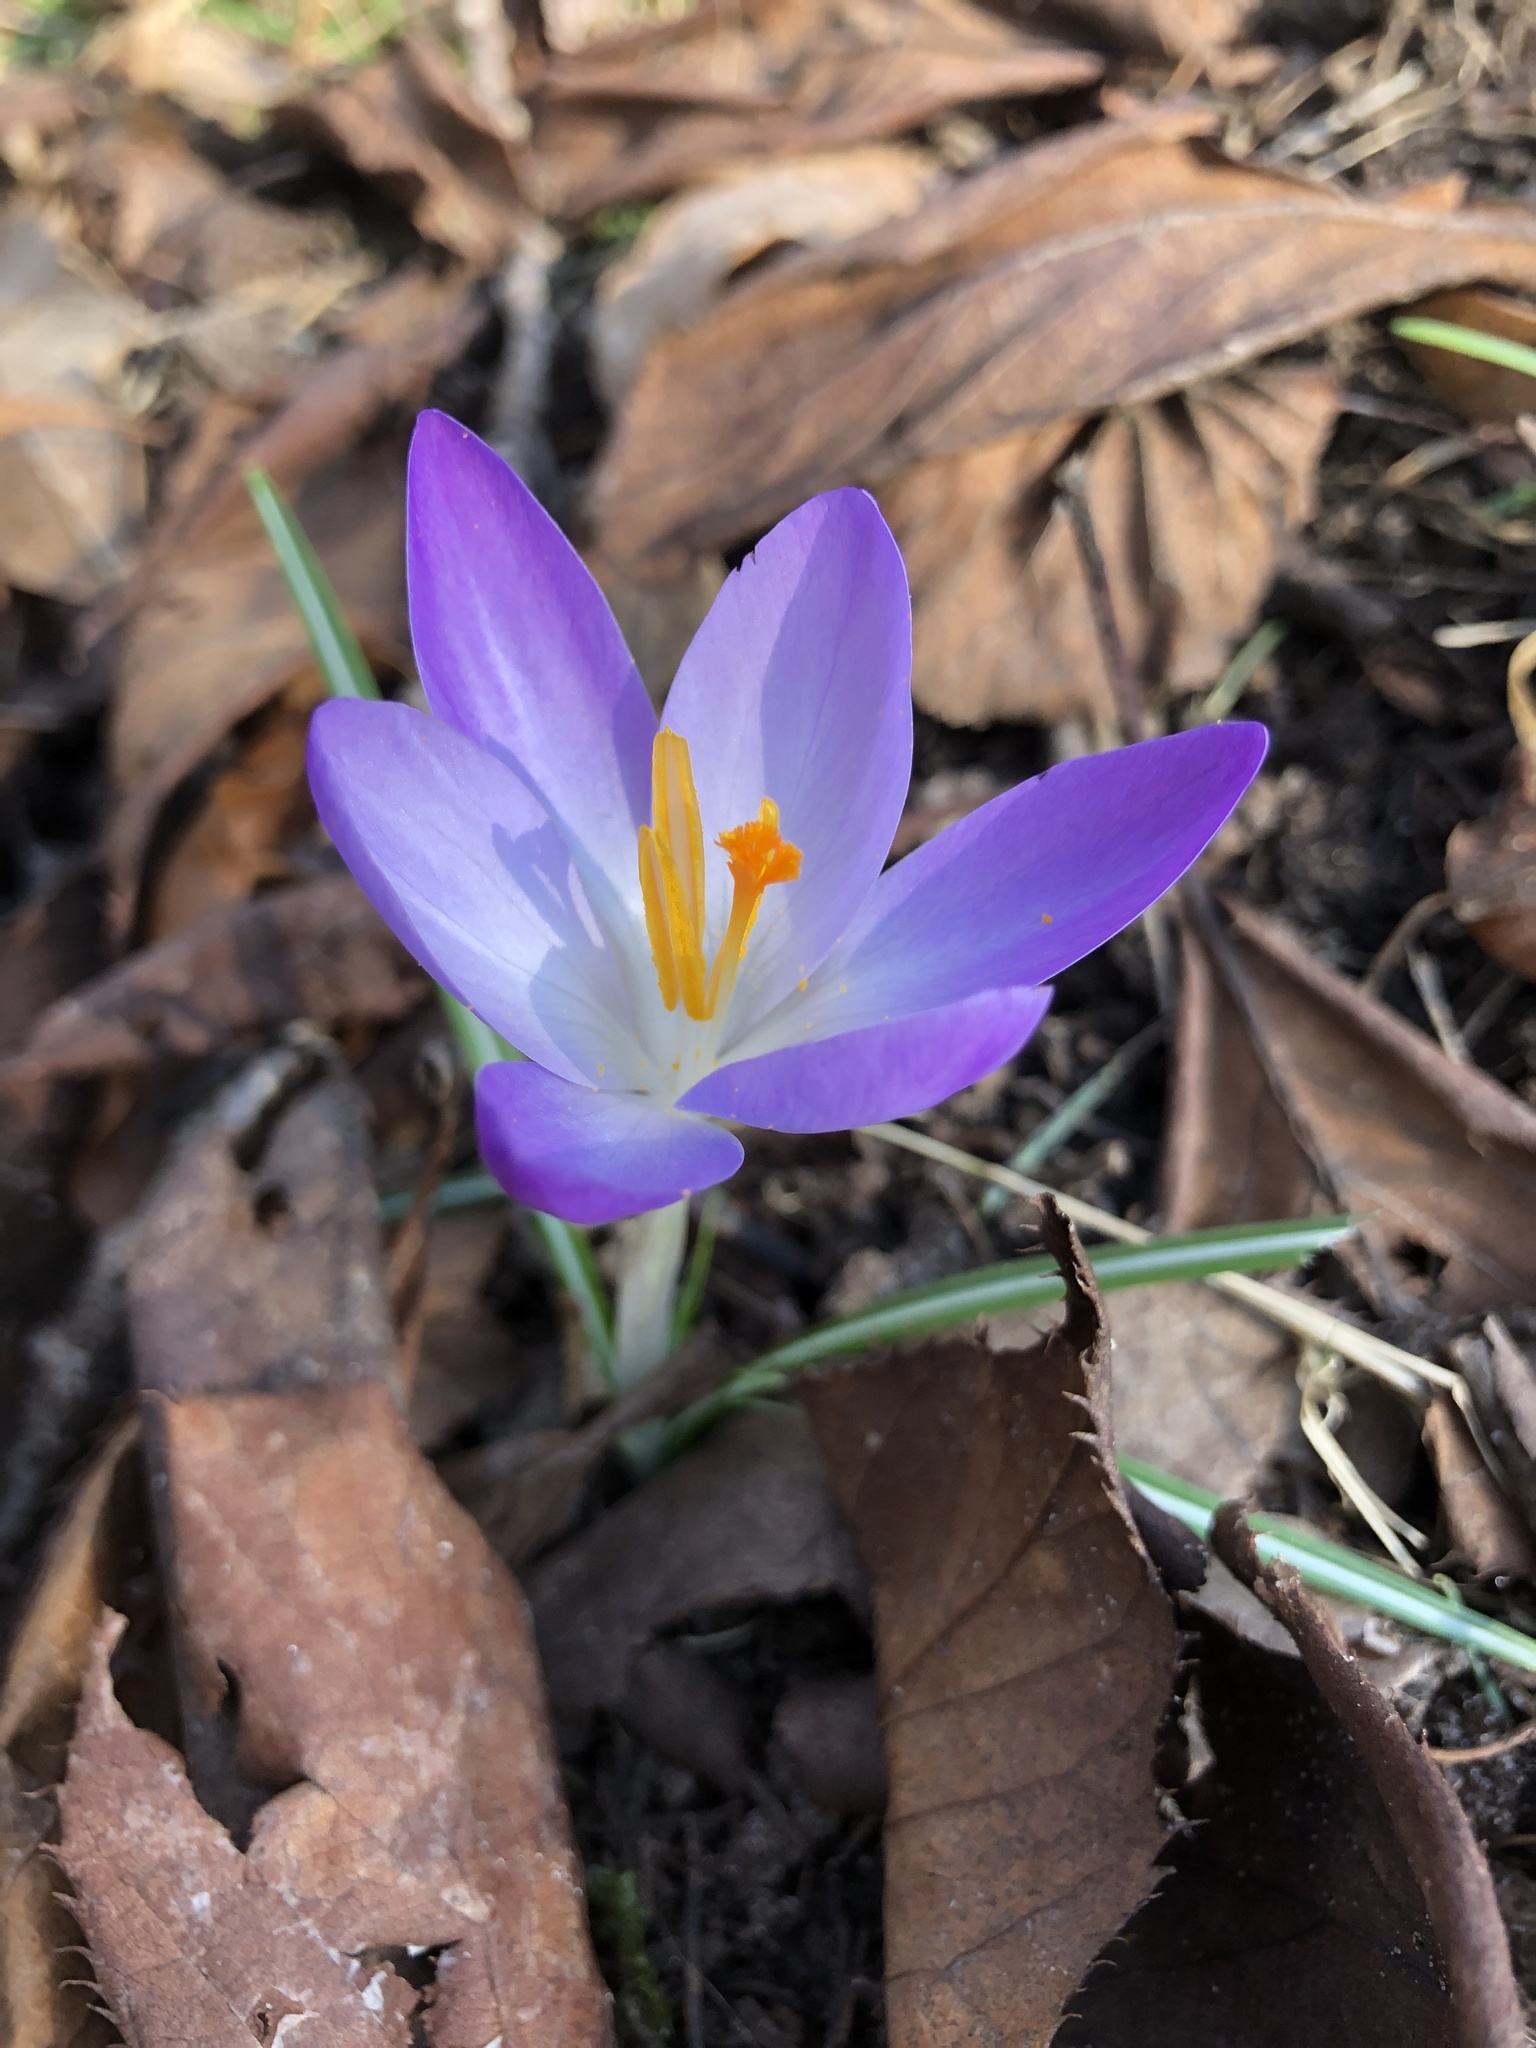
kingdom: Plantae
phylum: Tracheophyta
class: Liliopsida
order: Asparagales
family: Iridaceae
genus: Crocus
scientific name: Crocus tommasinianus
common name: Early crocus
